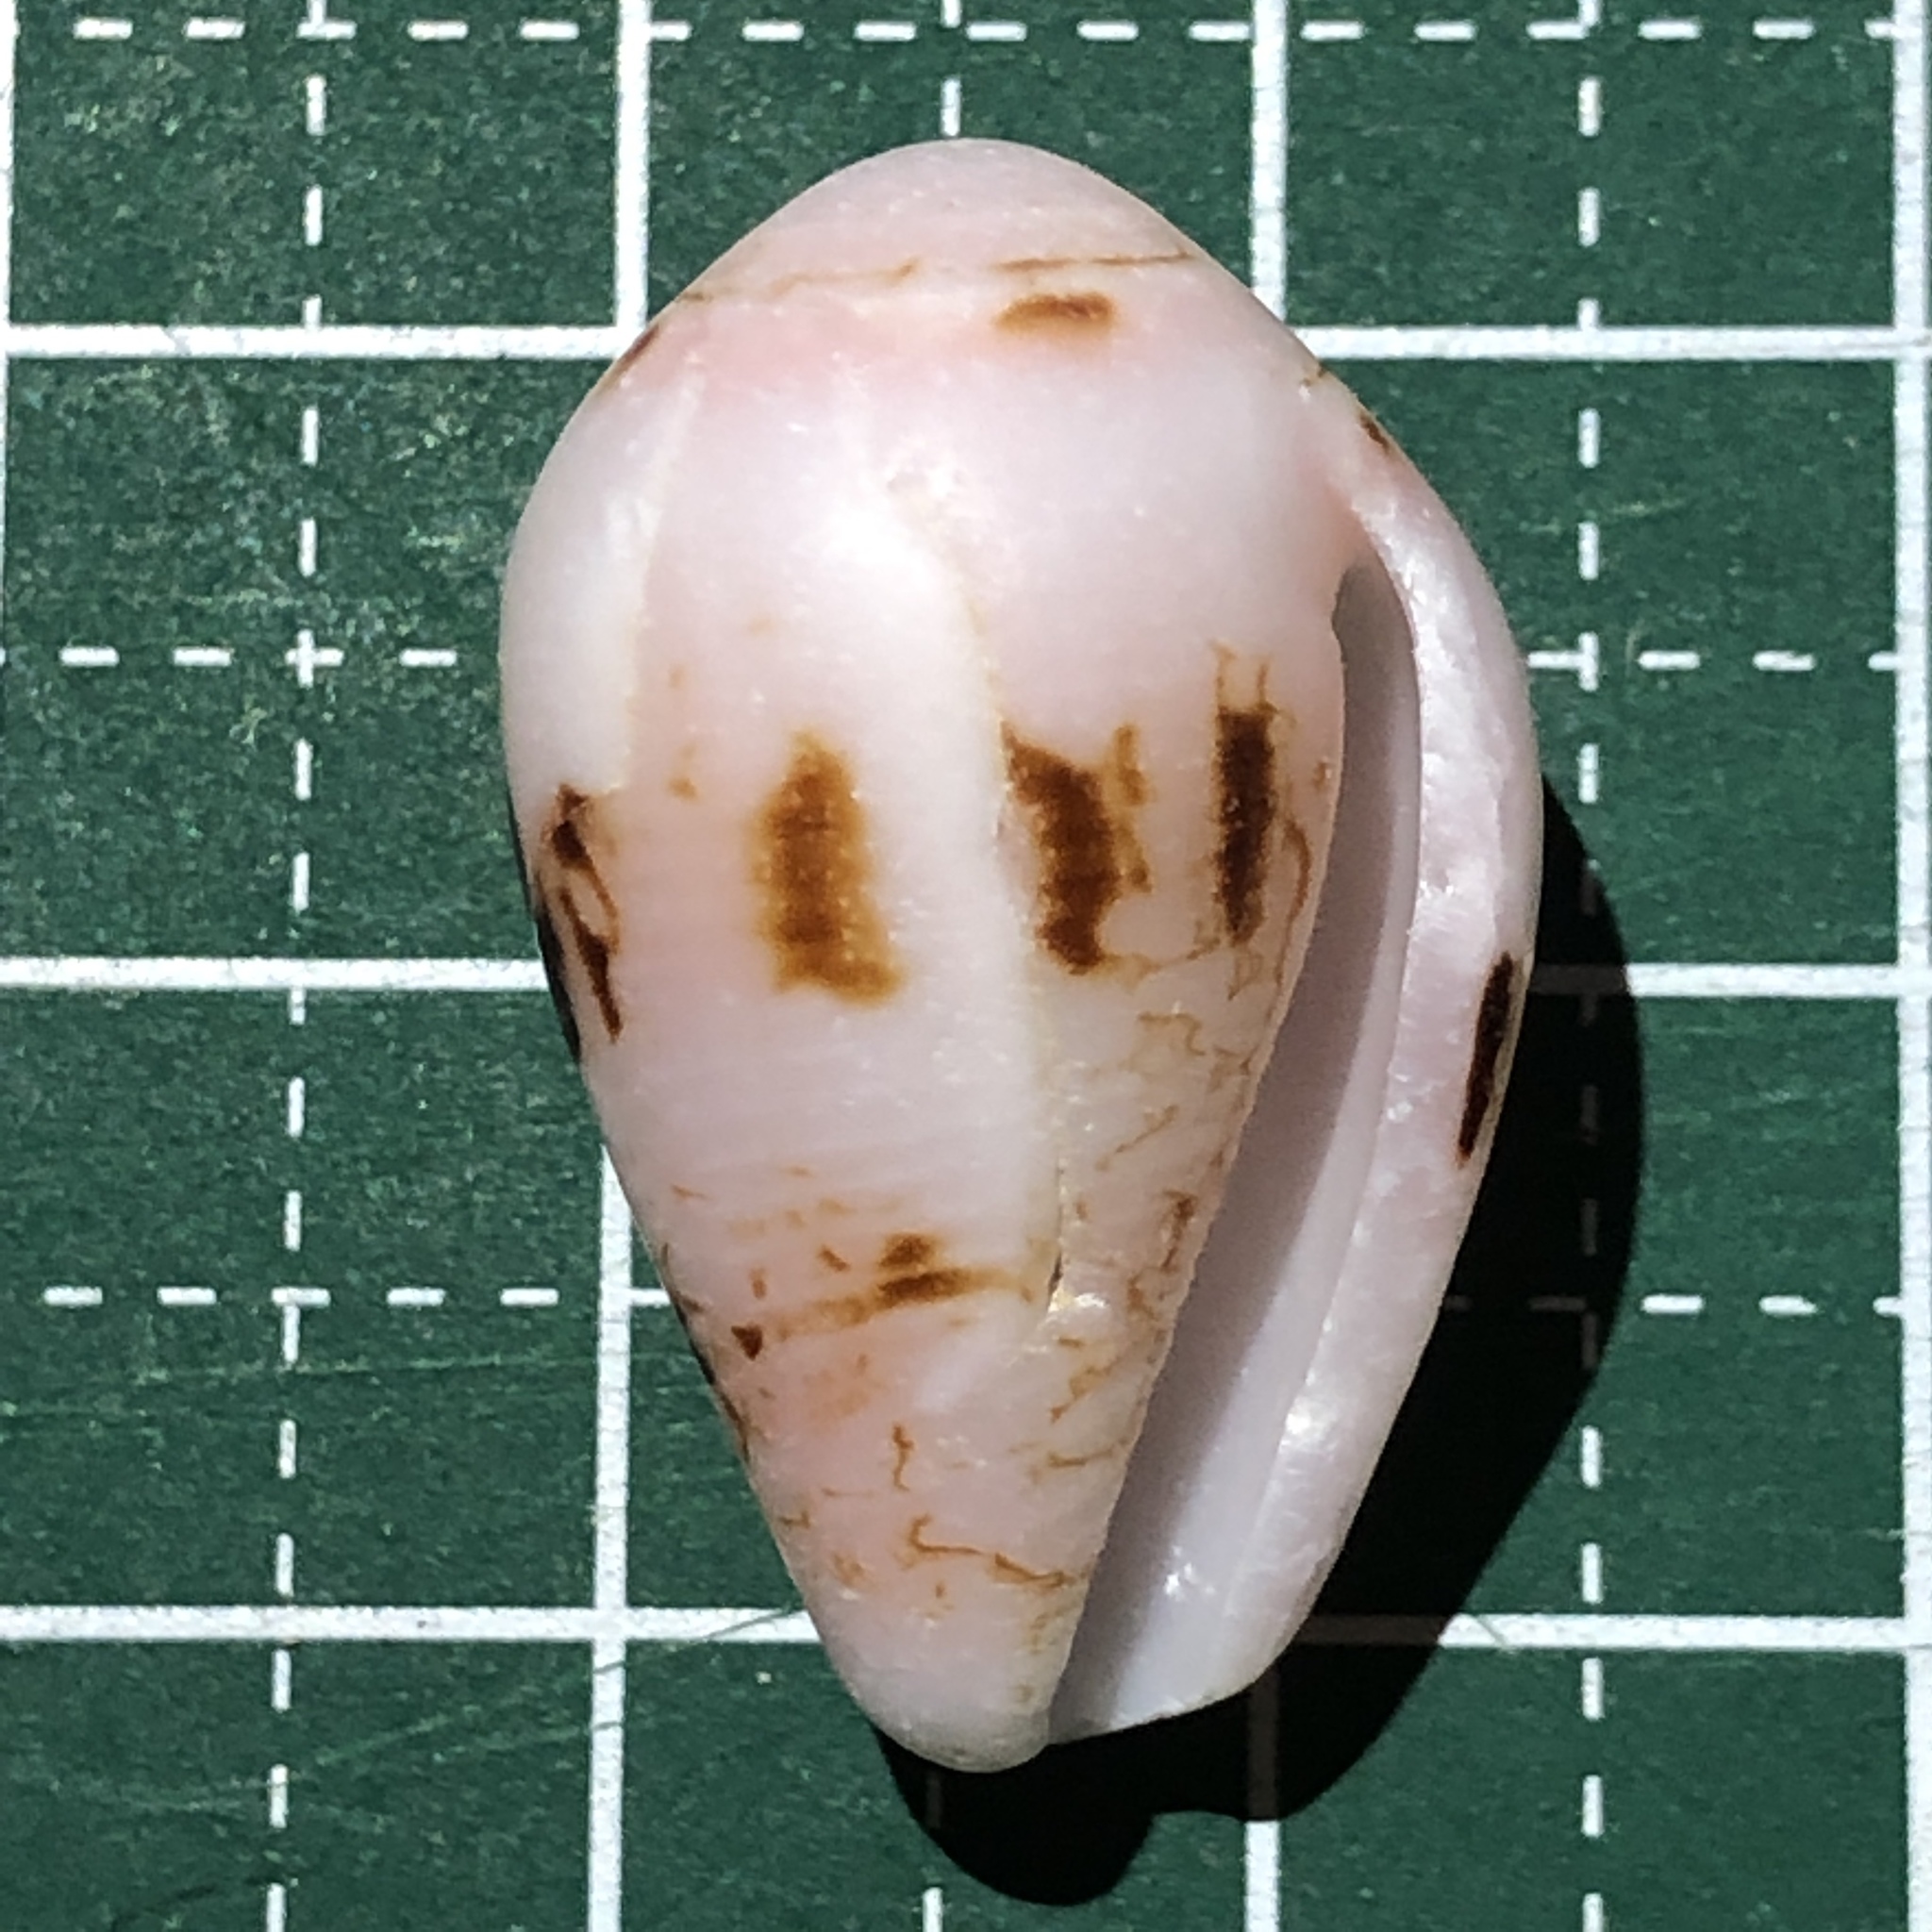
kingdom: Animalia
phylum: Mollusca
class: Gastropoda
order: Neogastropoda
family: Conidae
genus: Conus
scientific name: Conus retifer
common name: Netted cone
